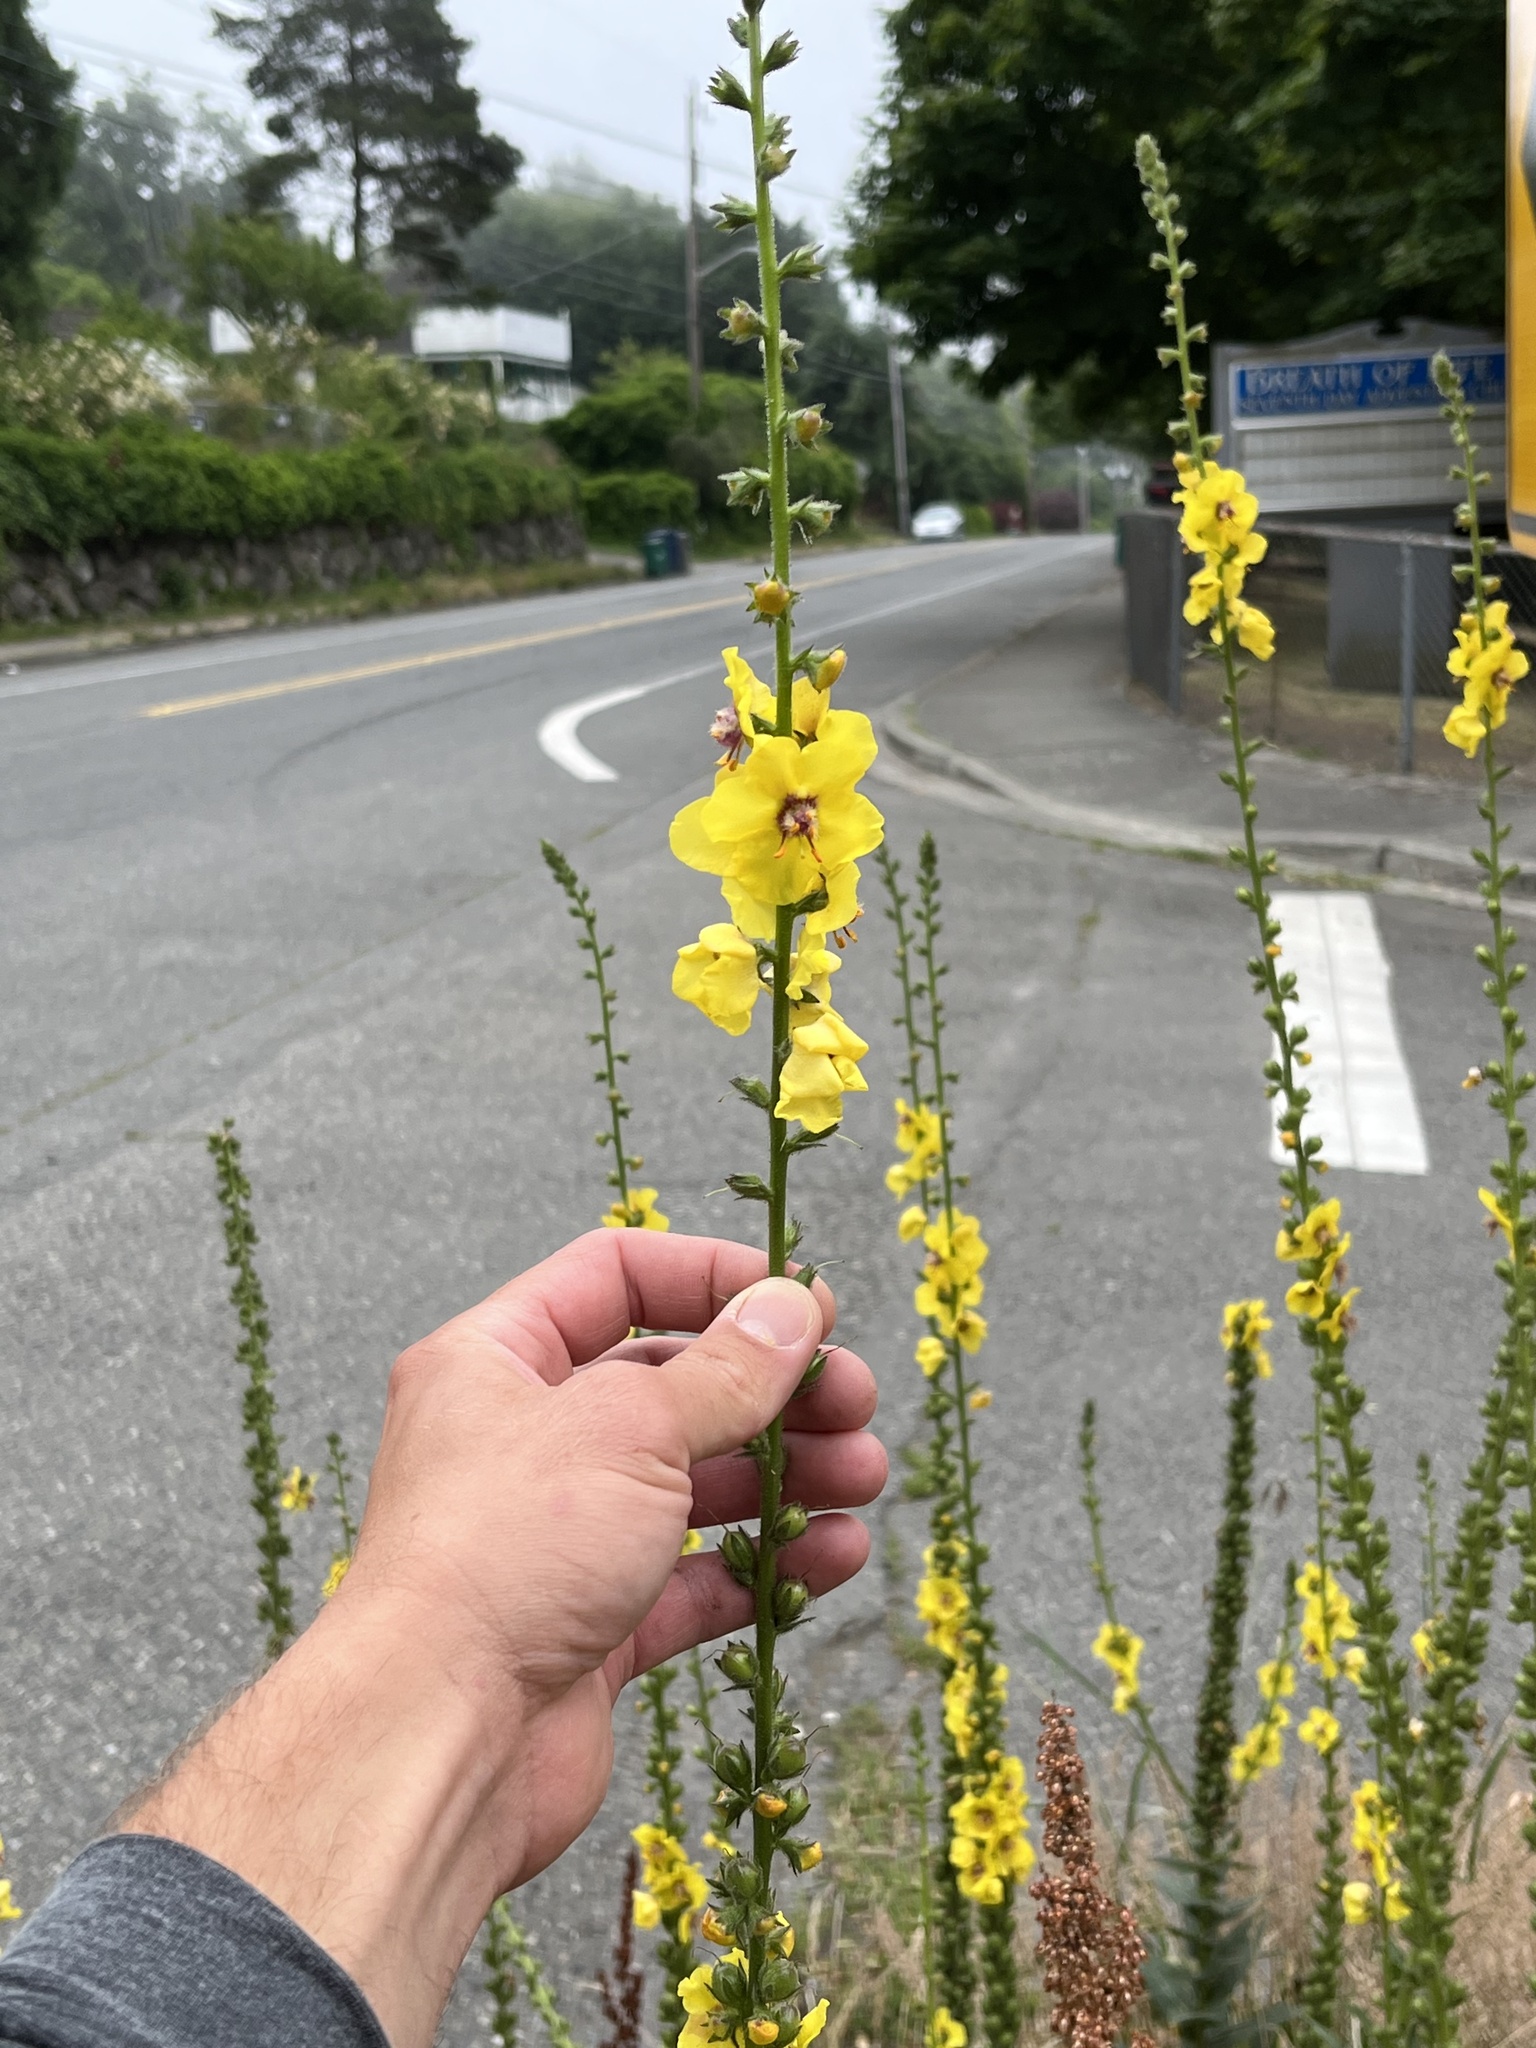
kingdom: Plantae
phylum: Tracheophyta
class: Magnoliopsida
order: Lamiales
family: Scrophulariaceae
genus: Verbascum
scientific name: Verbascum virgatum
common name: Twiggy mullein
